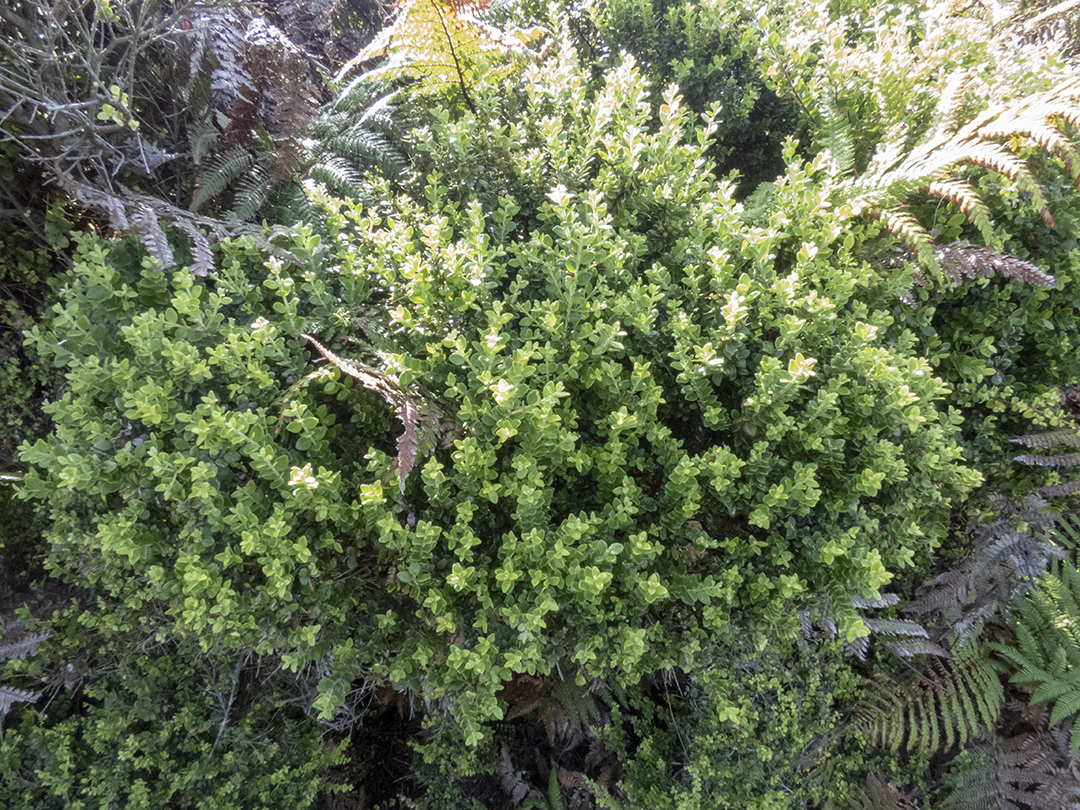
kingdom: Plantae
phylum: Tracheophyta
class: Magnoliopsida
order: Myrtales
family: Myrtaceae
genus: Metrosideros
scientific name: Metrosideros perforata
